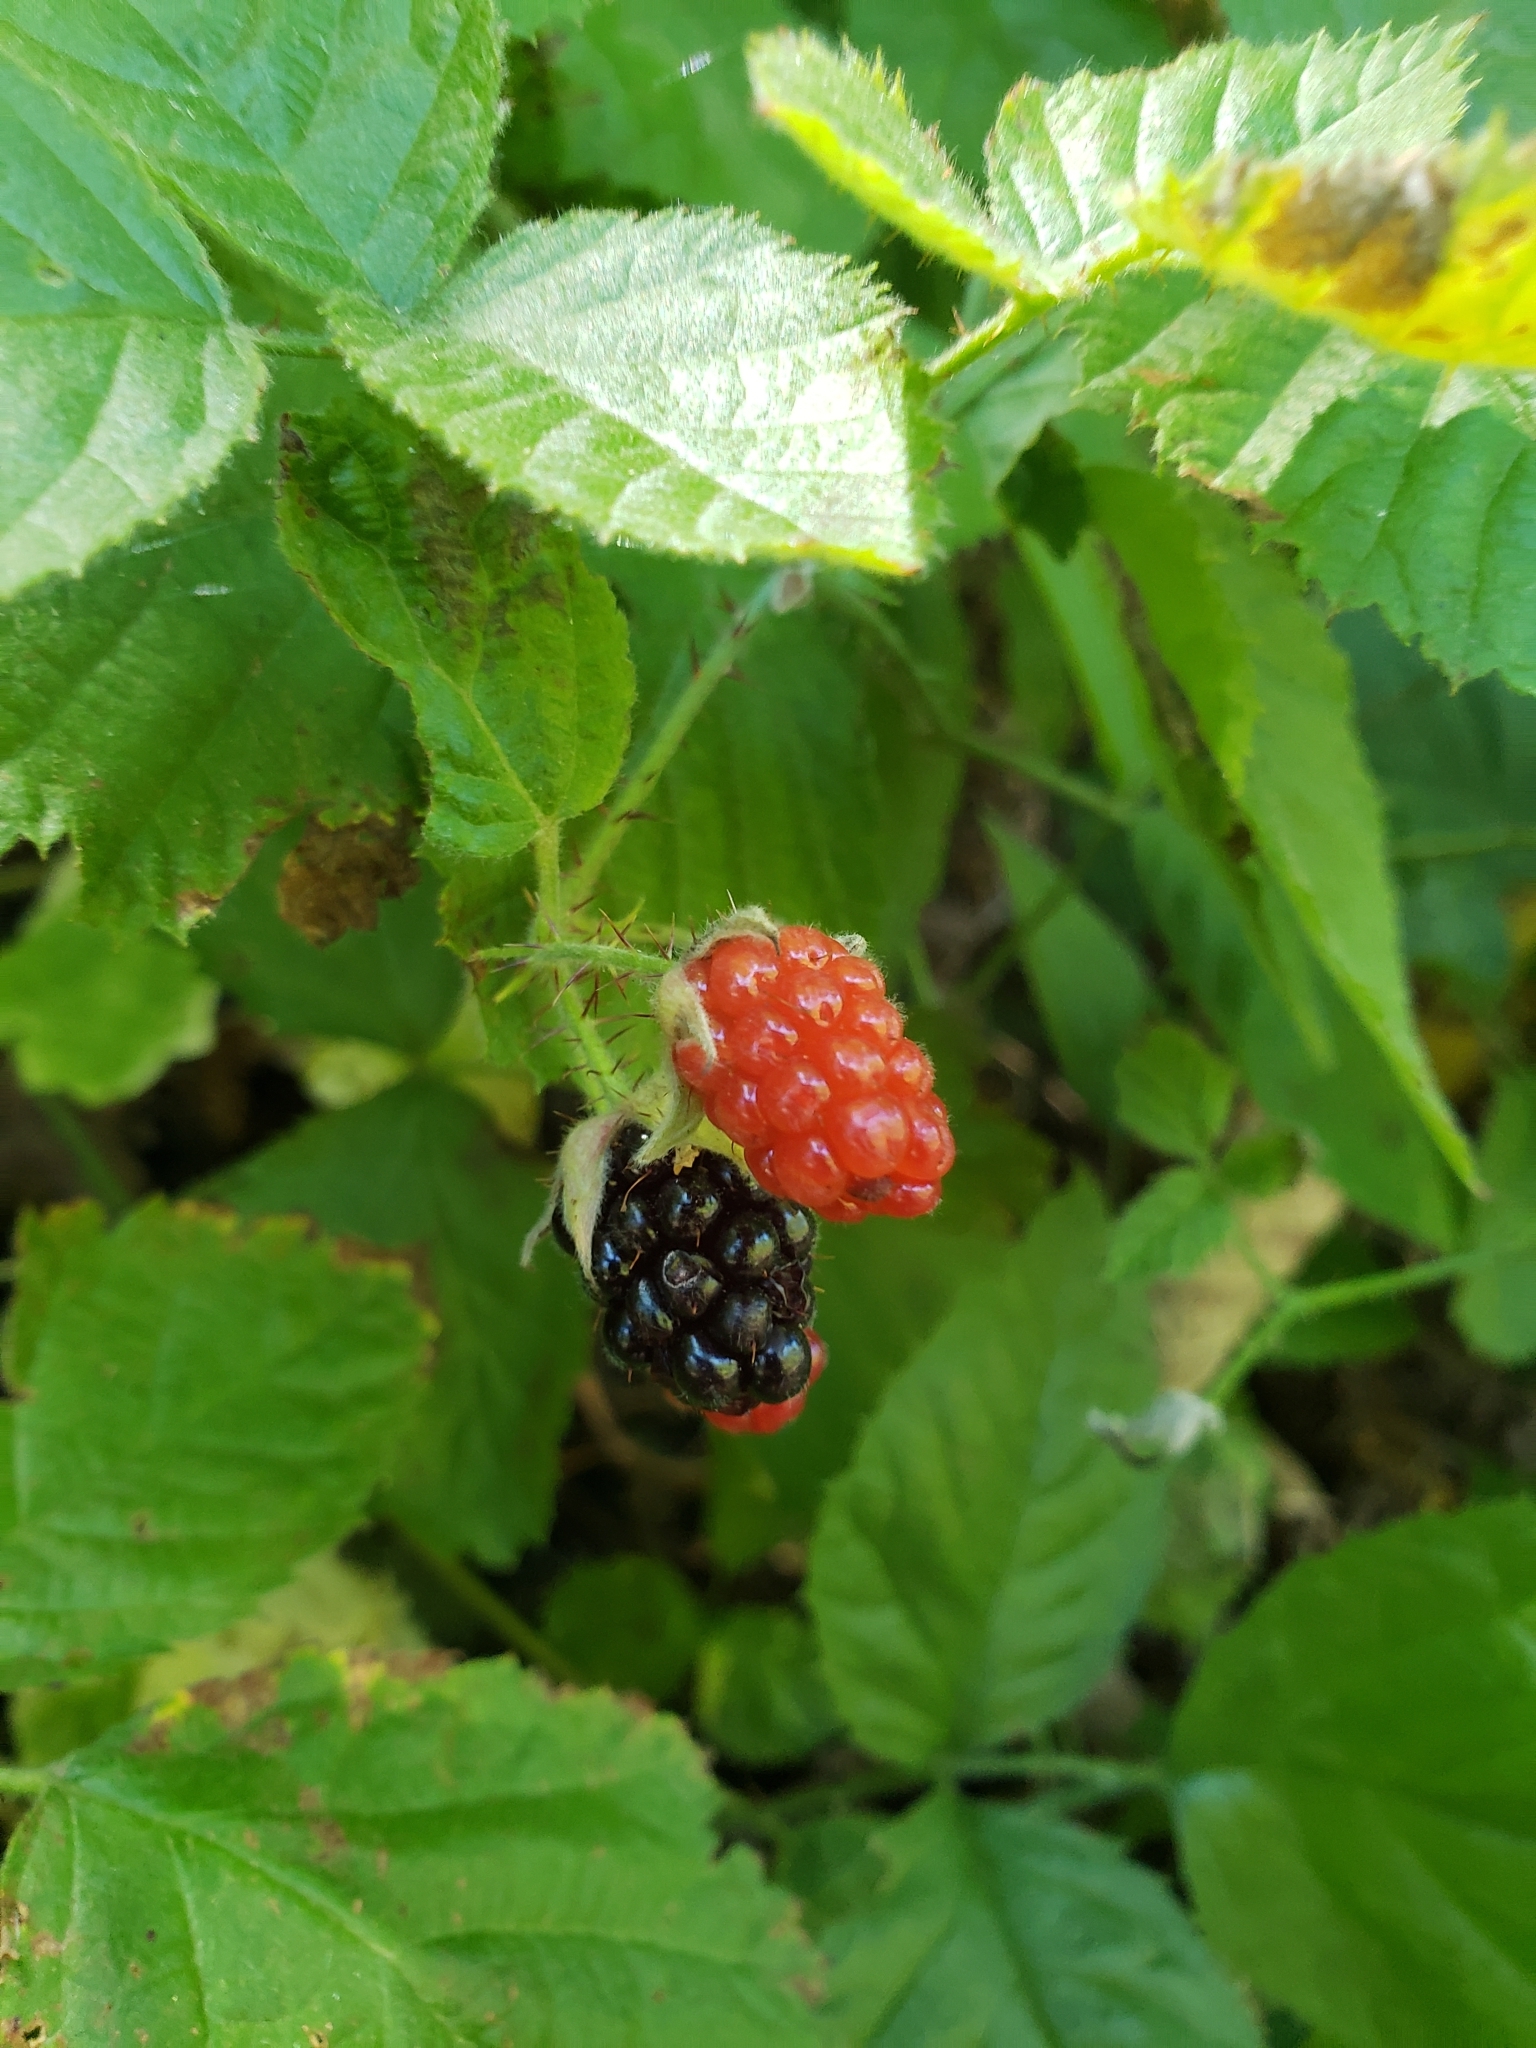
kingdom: Plantae
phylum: Tracheophyta
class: Magnoliopsida
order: Rosales
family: Rosaceae
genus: Rubus
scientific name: Rubus ursinus
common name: Pacific blackberry
